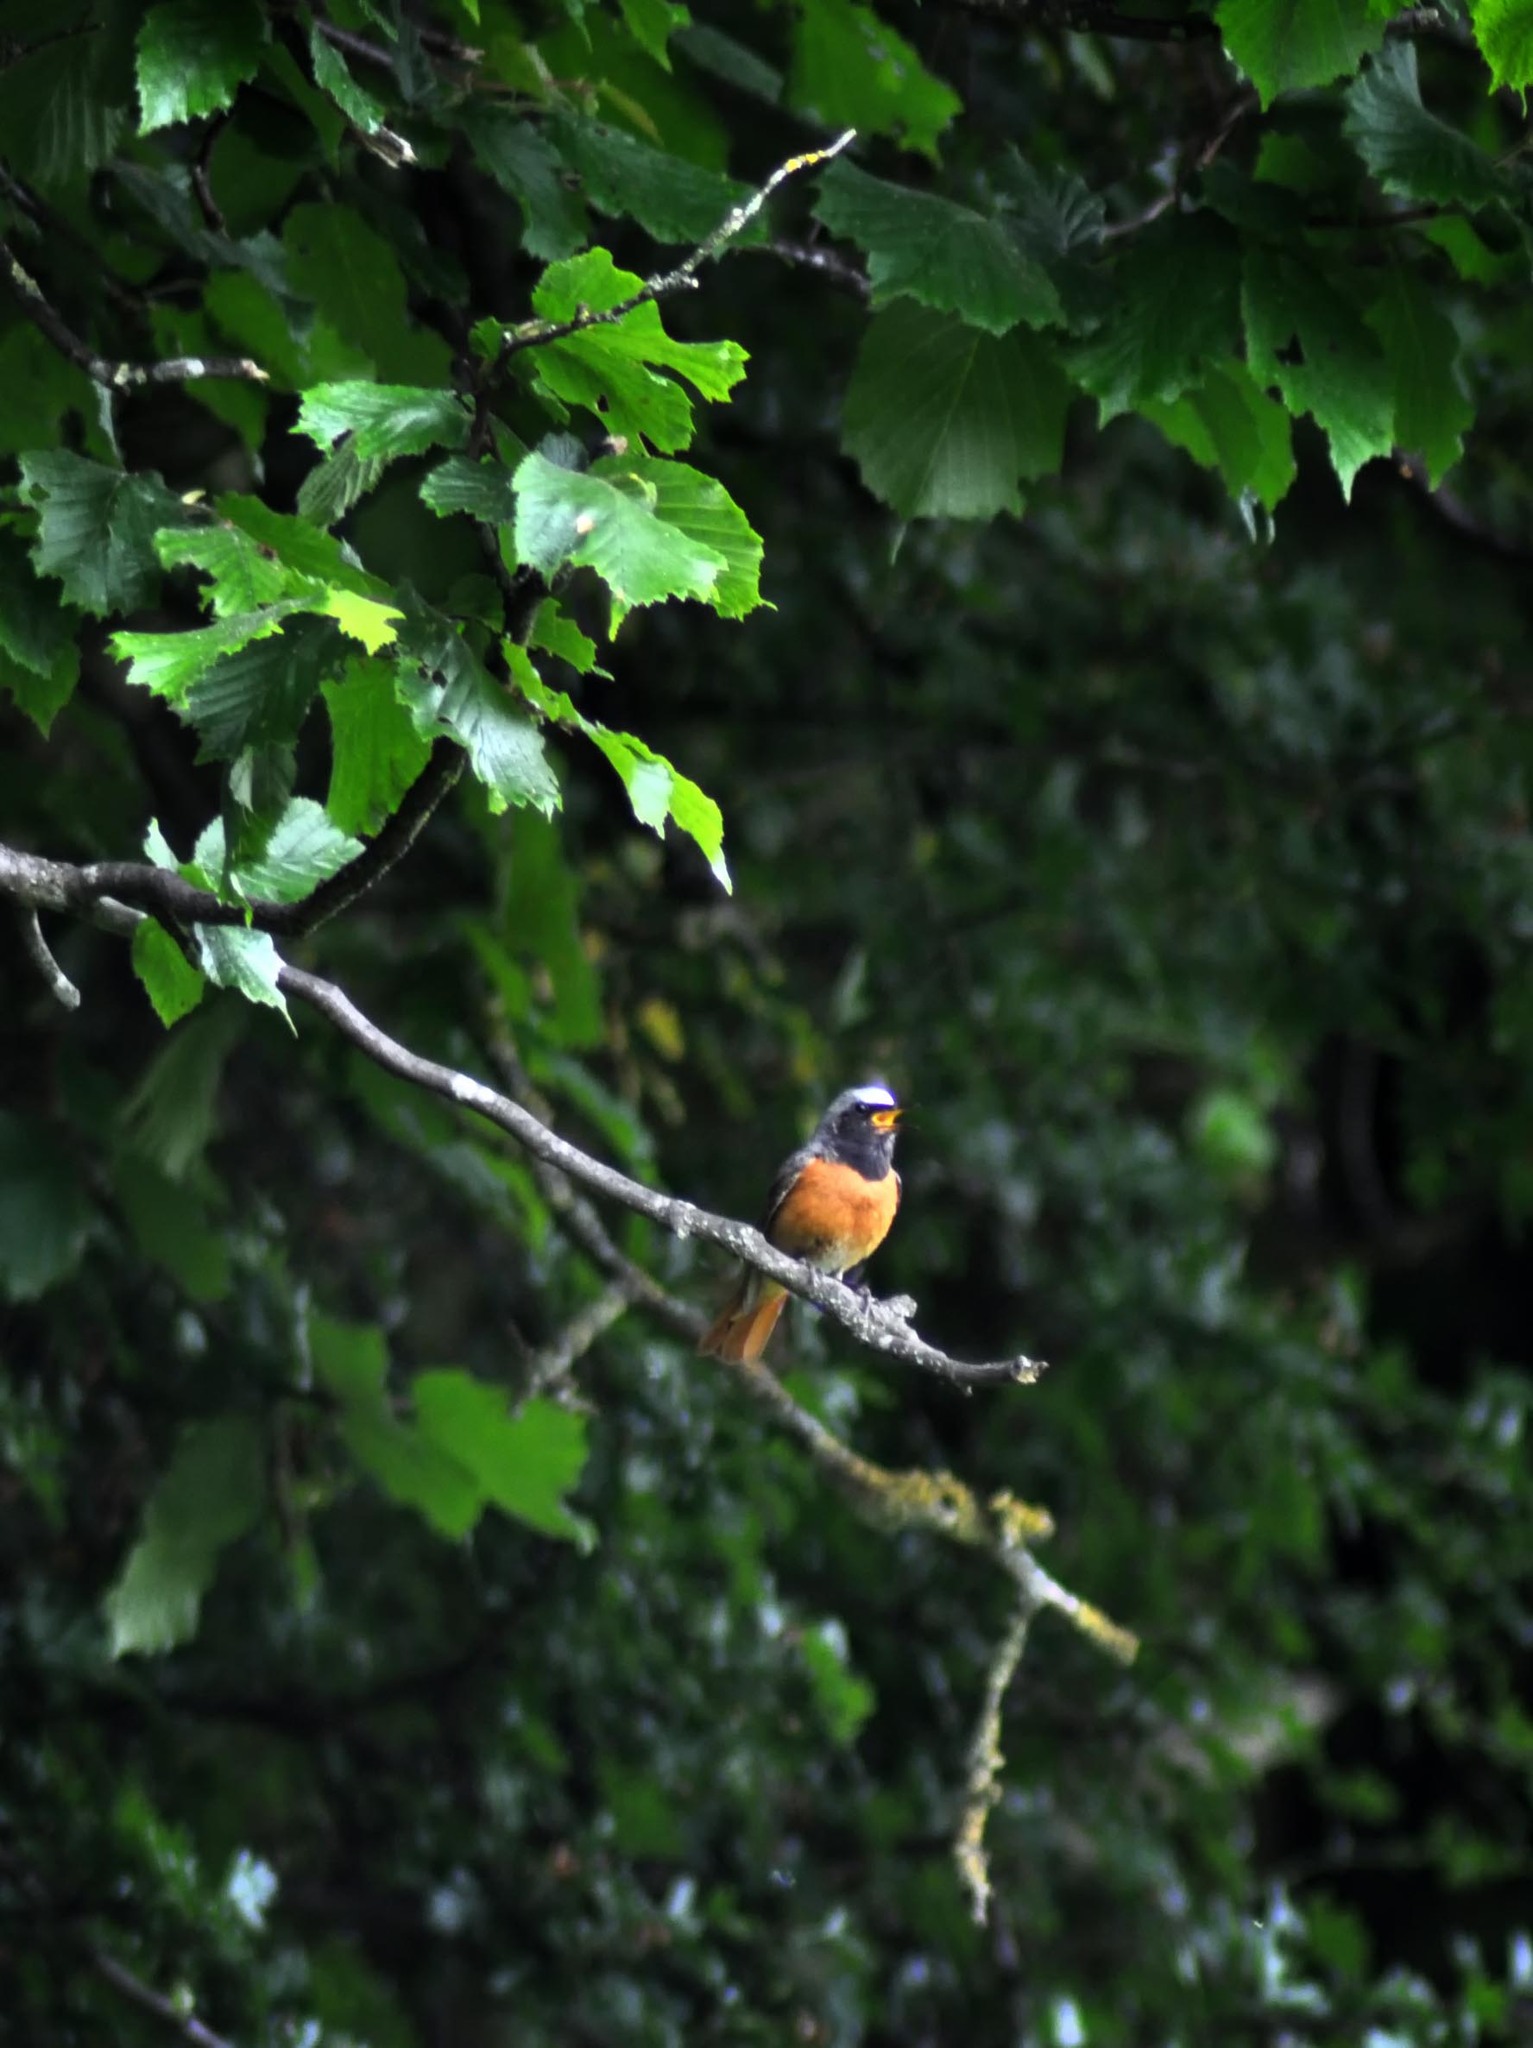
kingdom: Animalia
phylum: Chordata
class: Aves
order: Passeriformes
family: Muscicapidae
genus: Phoenicurus
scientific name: Phoenicurus phoenicurus
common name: Common redstart
